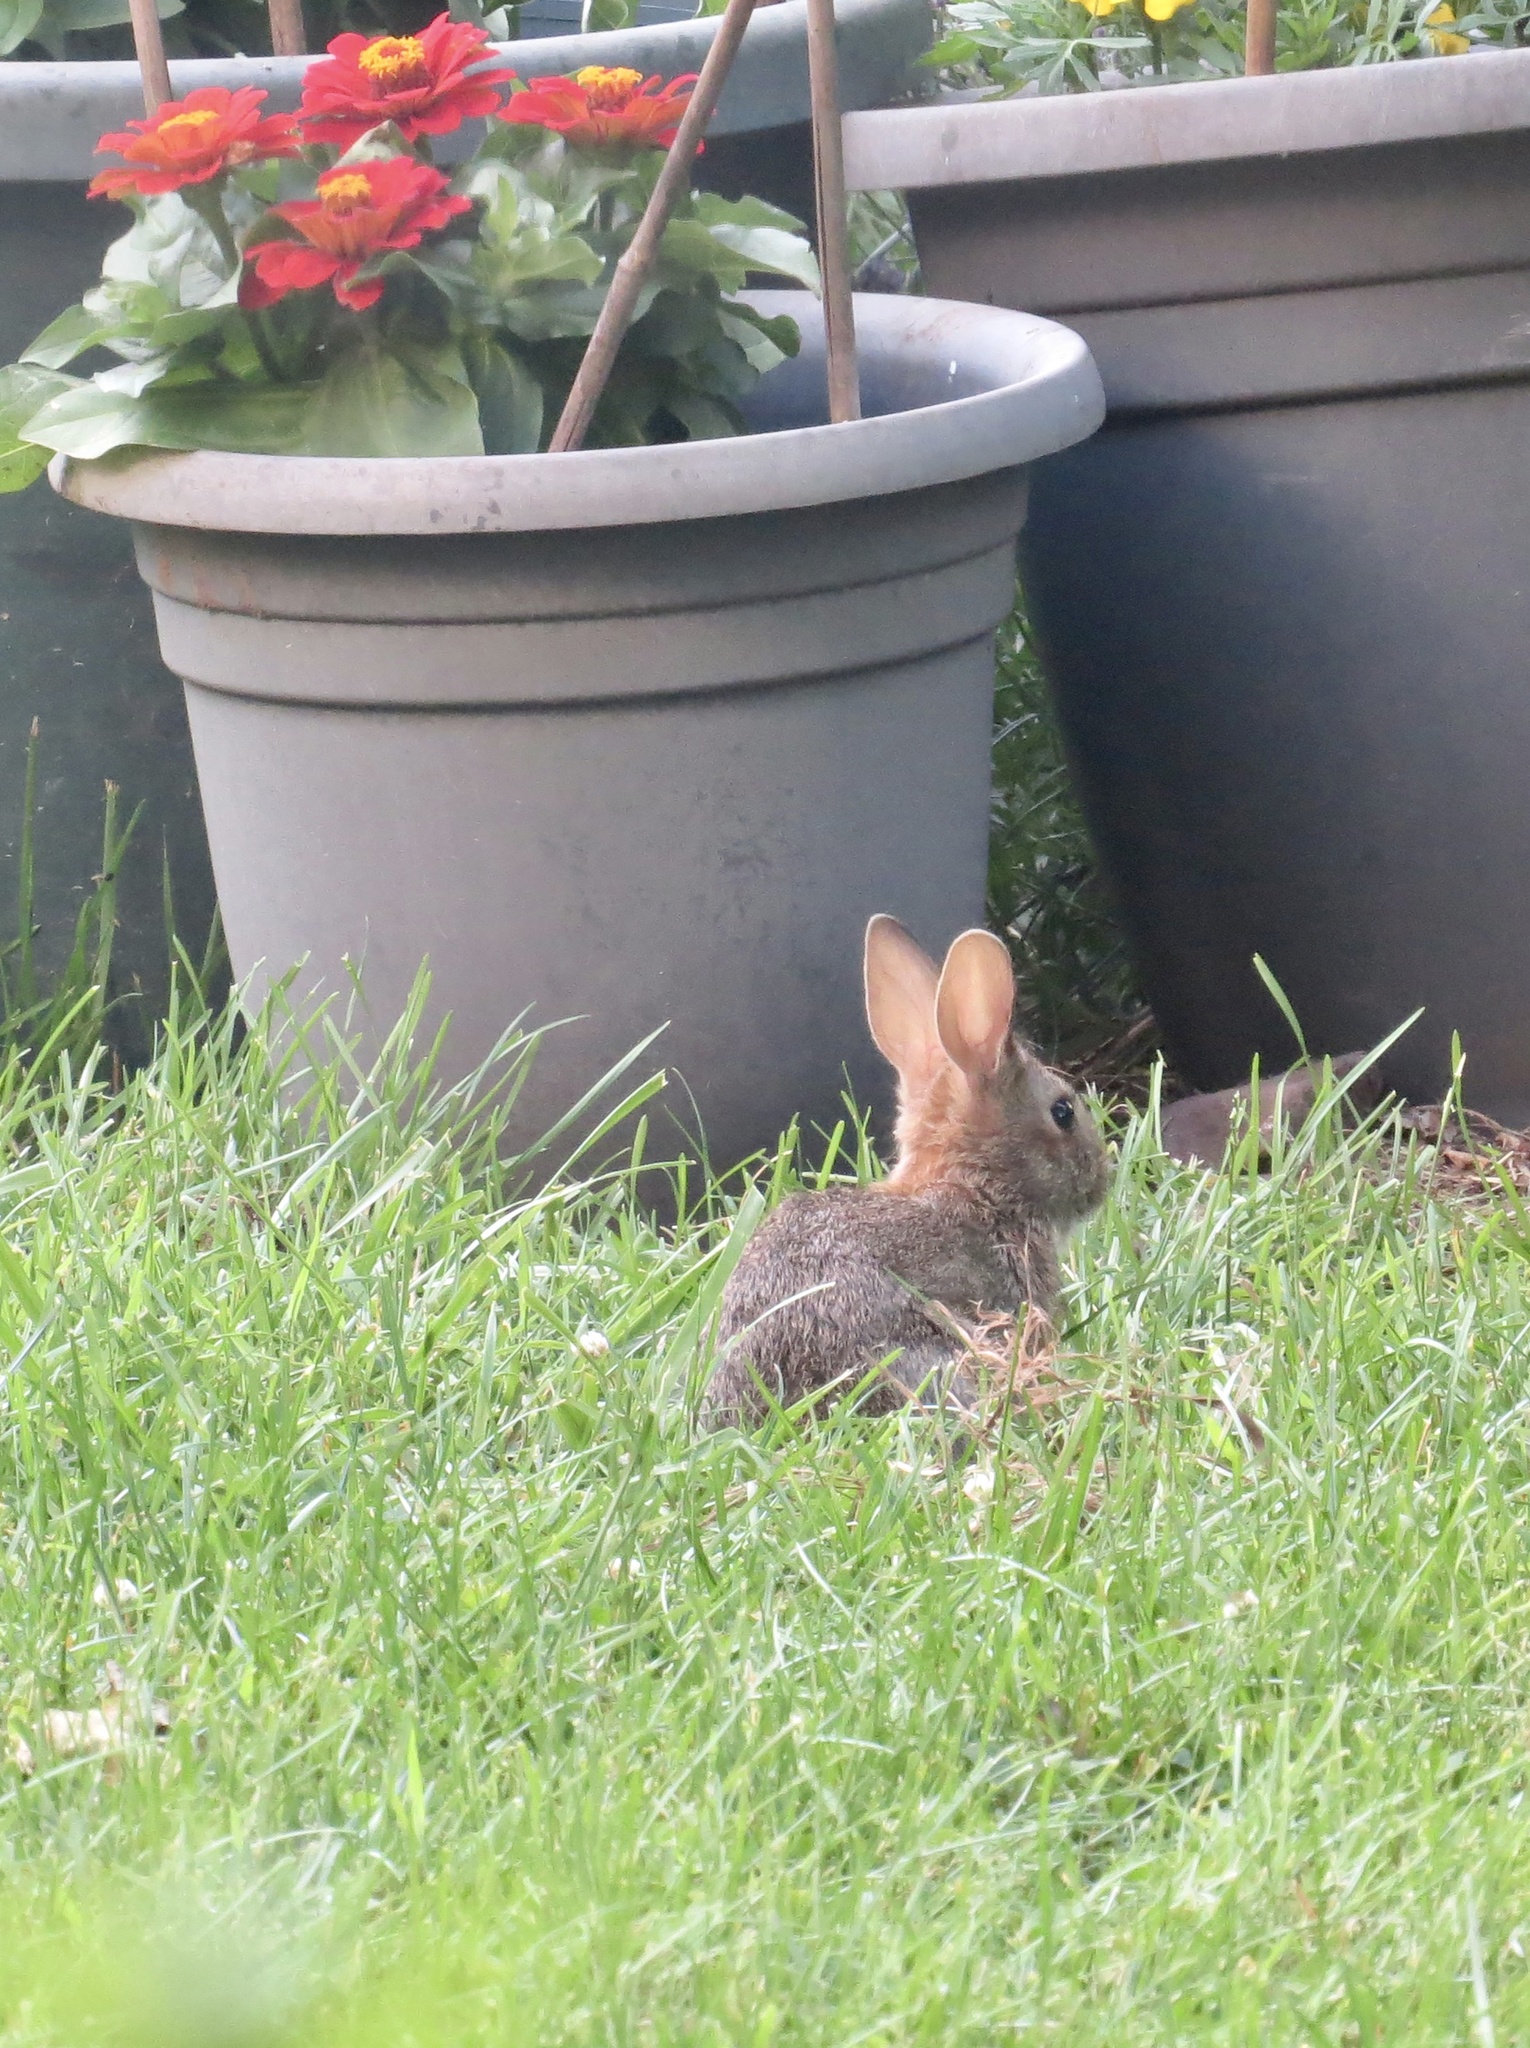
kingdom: Animalia
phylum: Chordata
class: Mammalia
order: Lagomorpha
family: Leporidae
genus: Sylvilagus
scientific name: Sylvilagus floridanus
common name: Eastern cottontail
